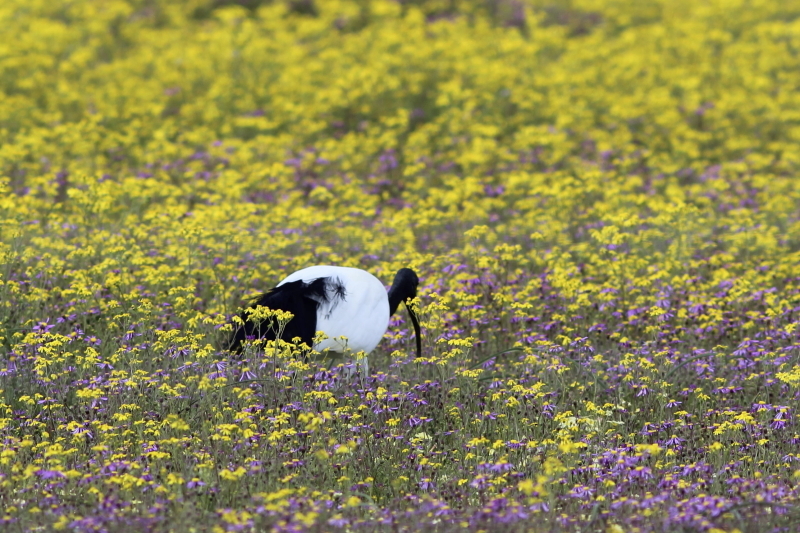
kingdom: Animalia
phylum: Chordata
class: Aves
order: Pelecaniformes
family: Threskiornithidae
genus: Threskiornis
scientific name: Threskiornis aethiopicus
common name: Sacred ibis
